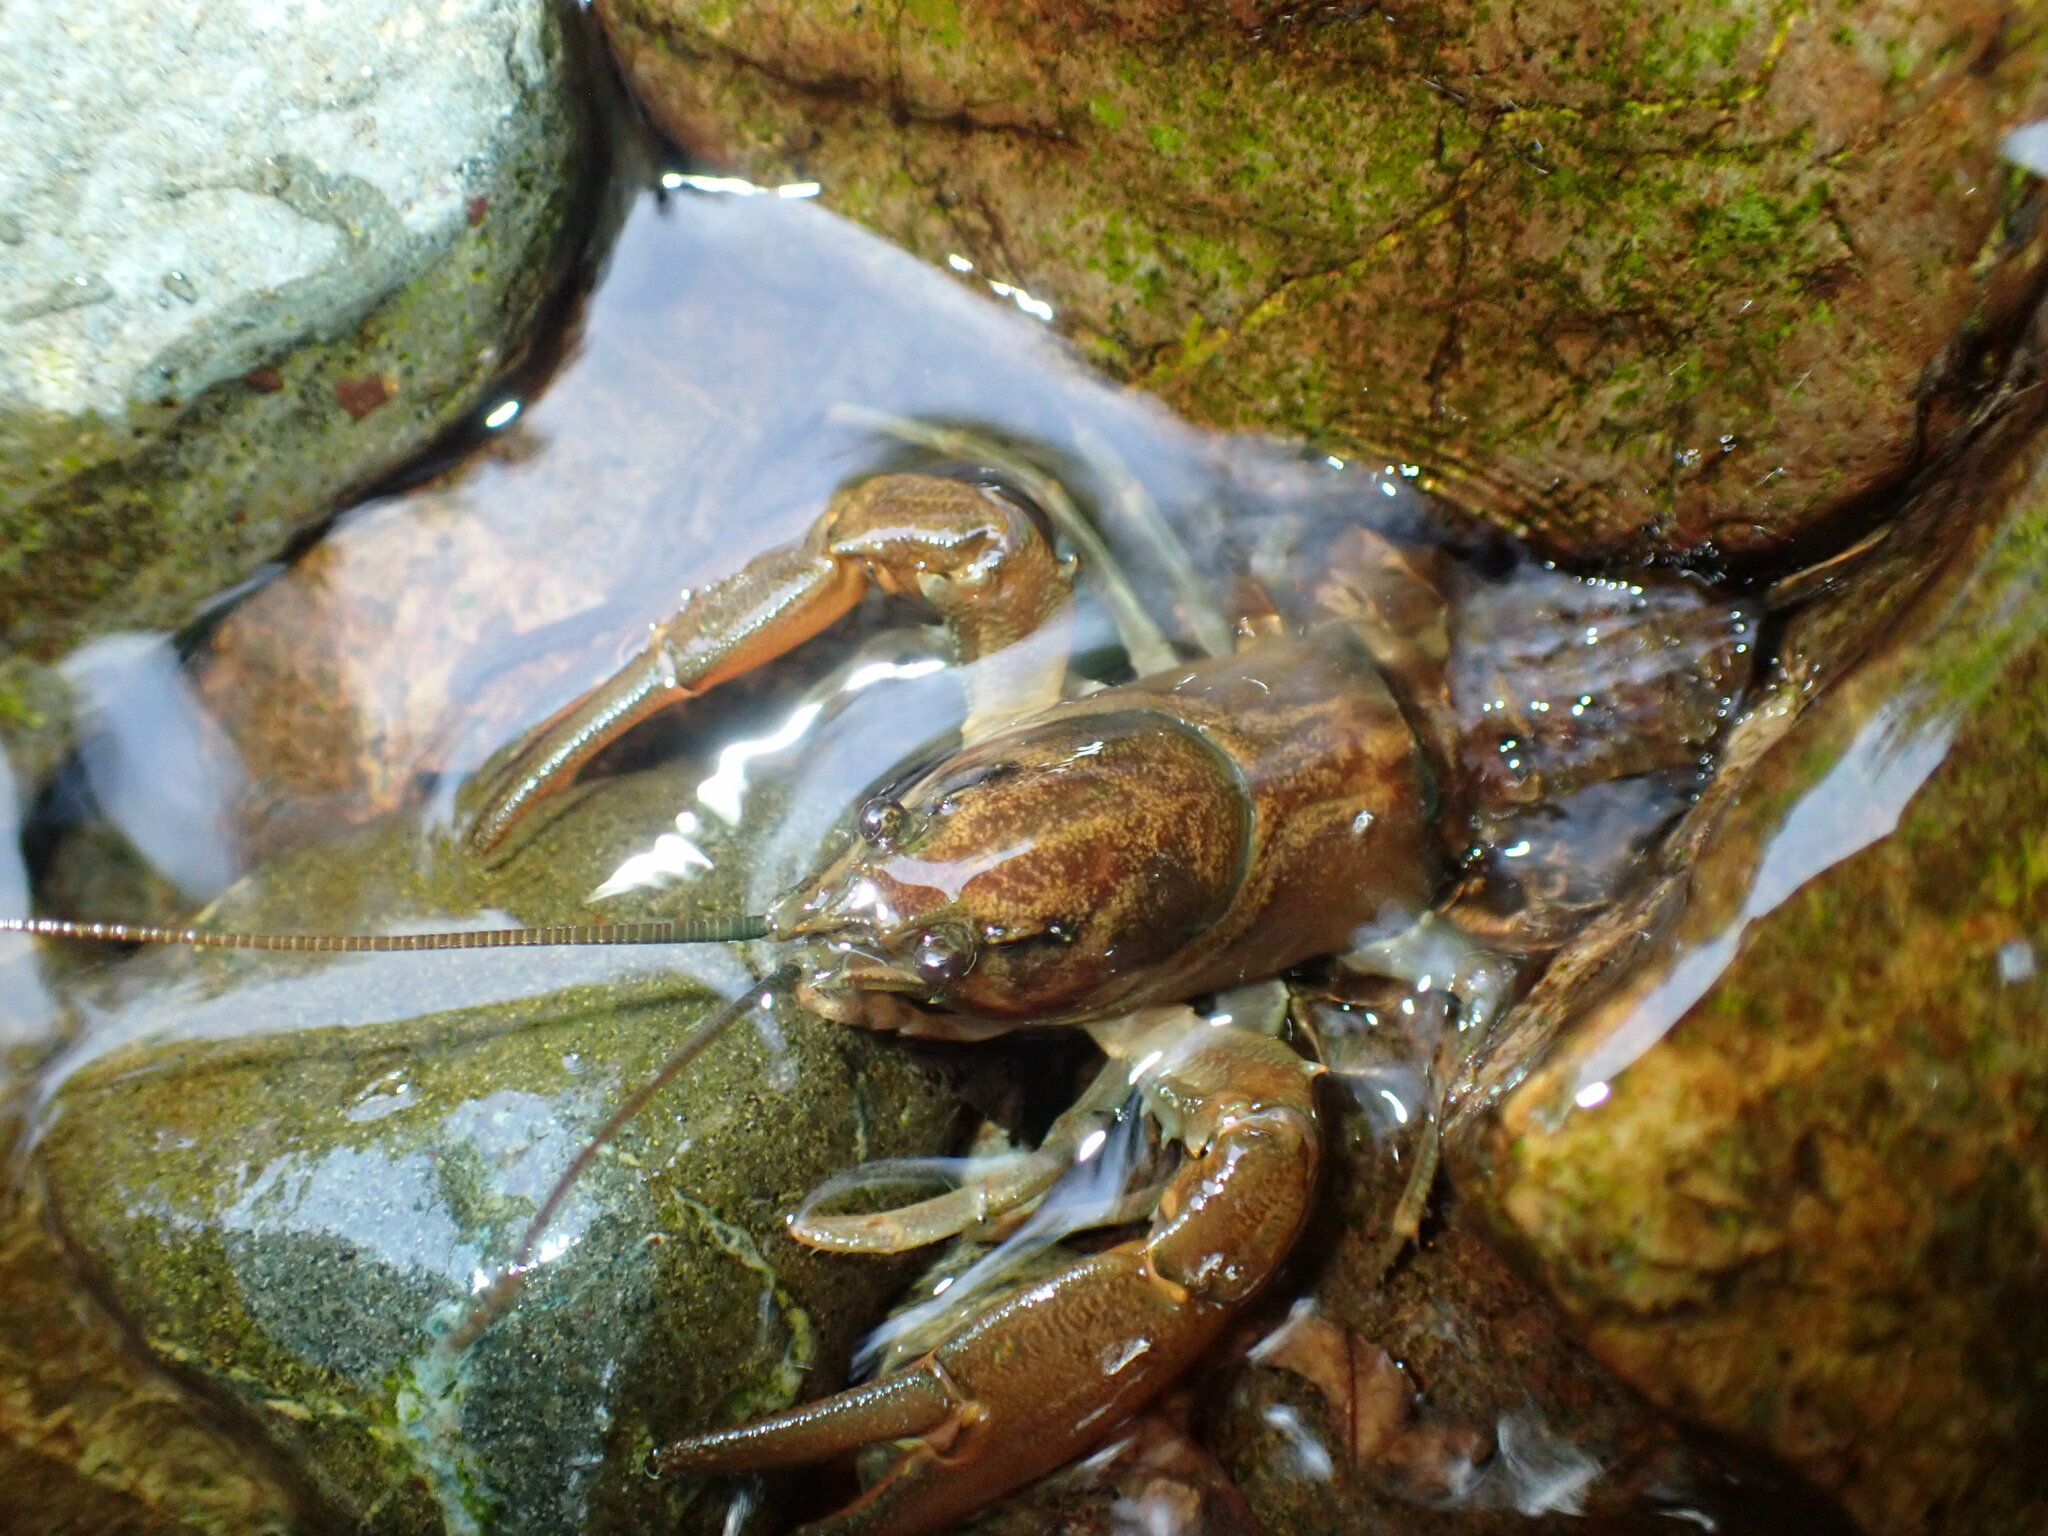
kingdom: Animalia
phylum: Arthropoda
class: Malacostraca
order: Decapoda
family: Astacidae
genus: Pacifastacus
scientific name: Pacifastacus leniusculus
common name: Signal crayfish
